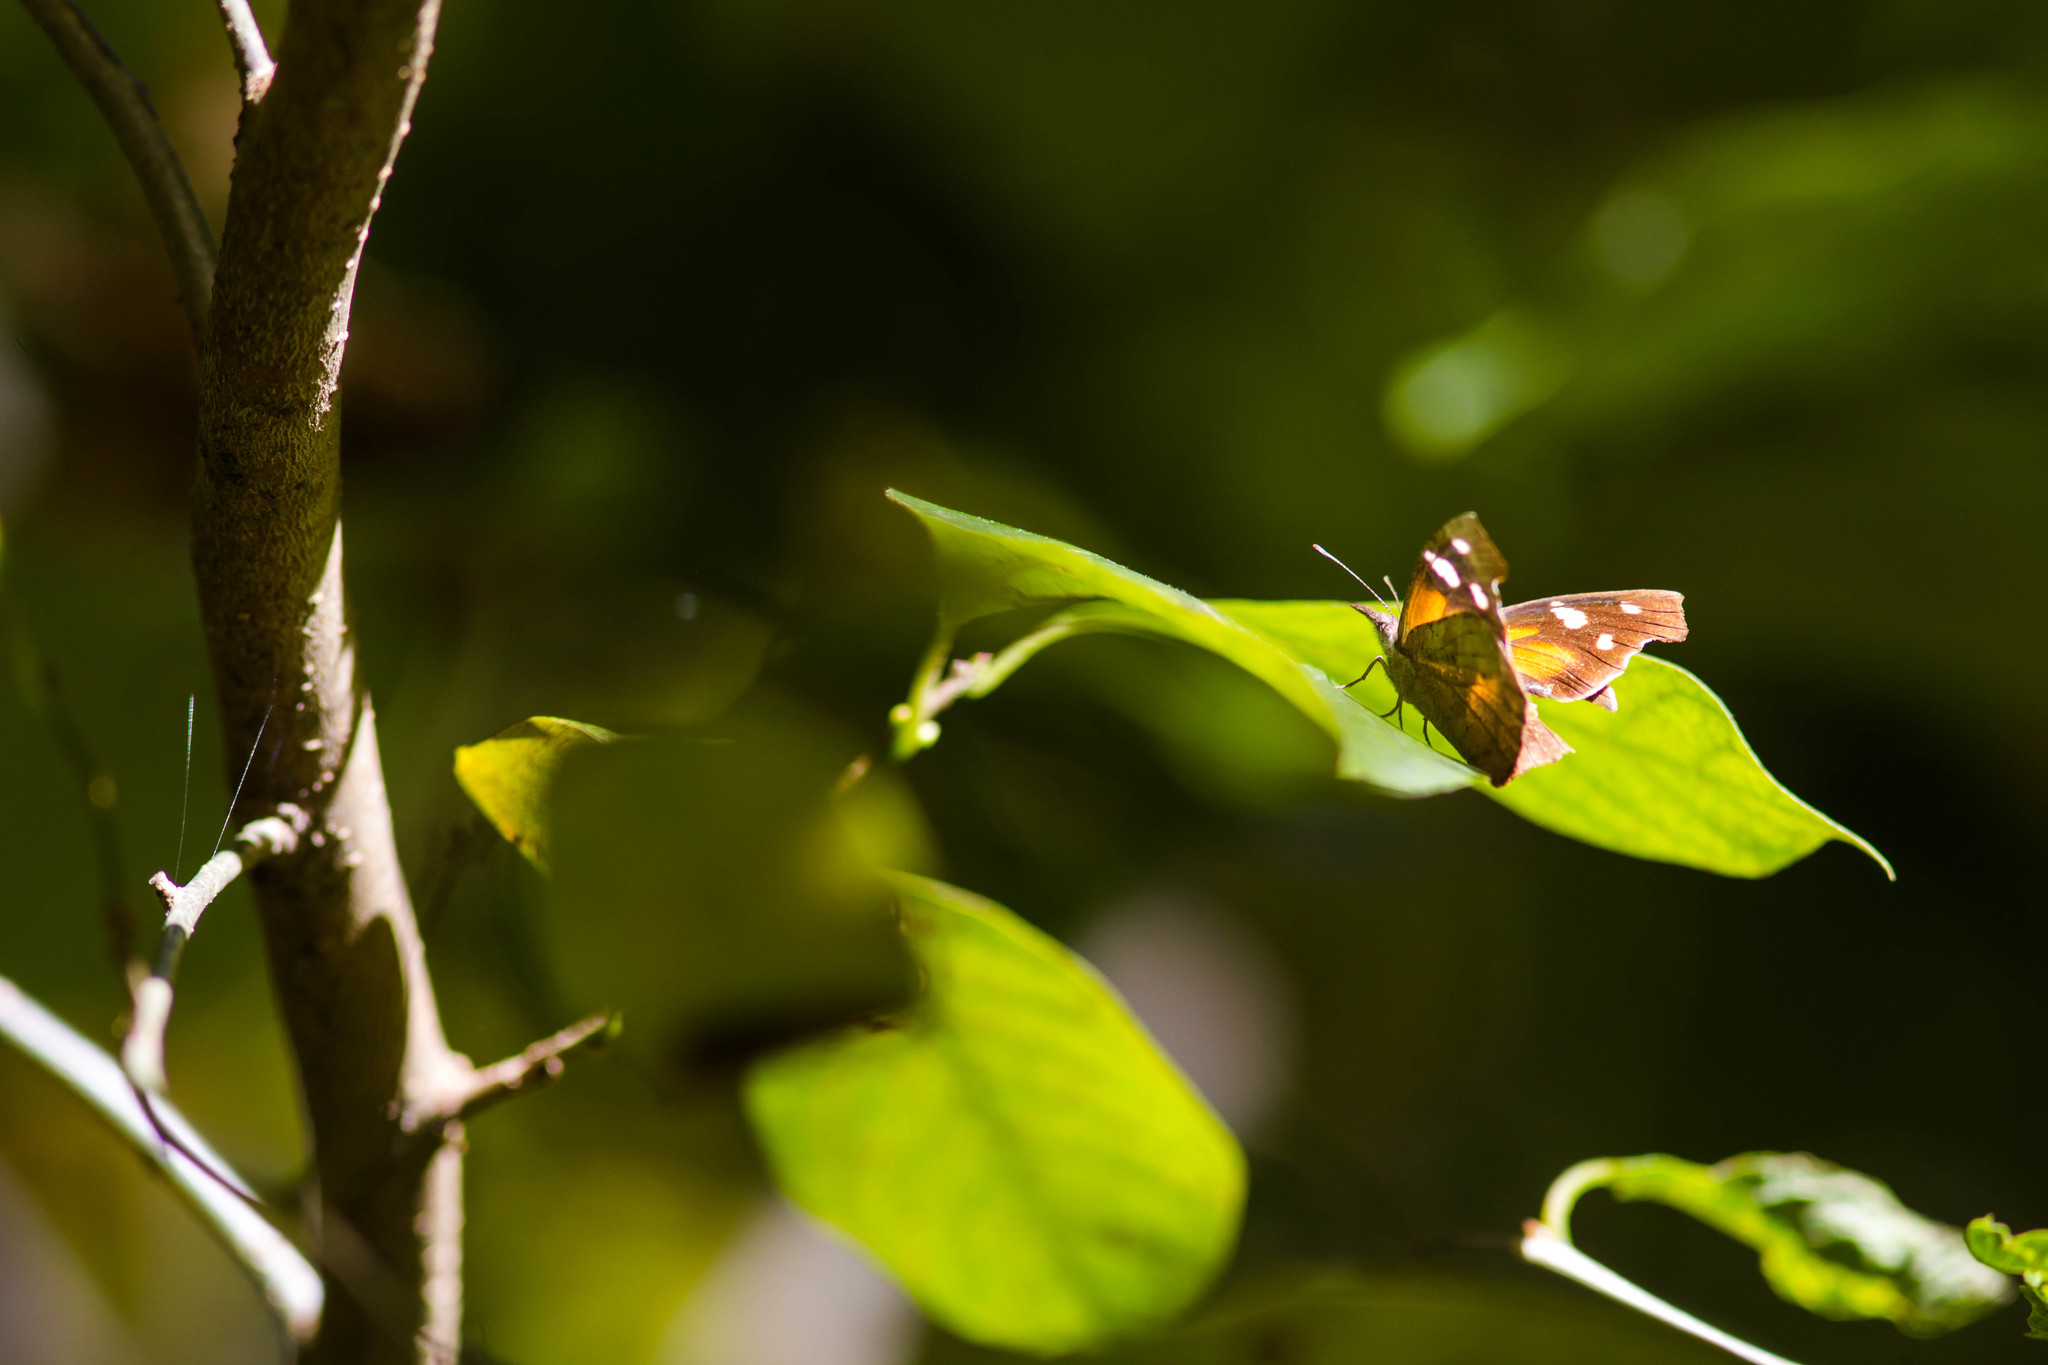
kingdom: Animalia
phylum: Arthropoda
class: Insecta
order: Lepidoptera
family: Nymphalidae
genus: Libytheana
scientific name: Libytheana carinenta
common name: American snout
